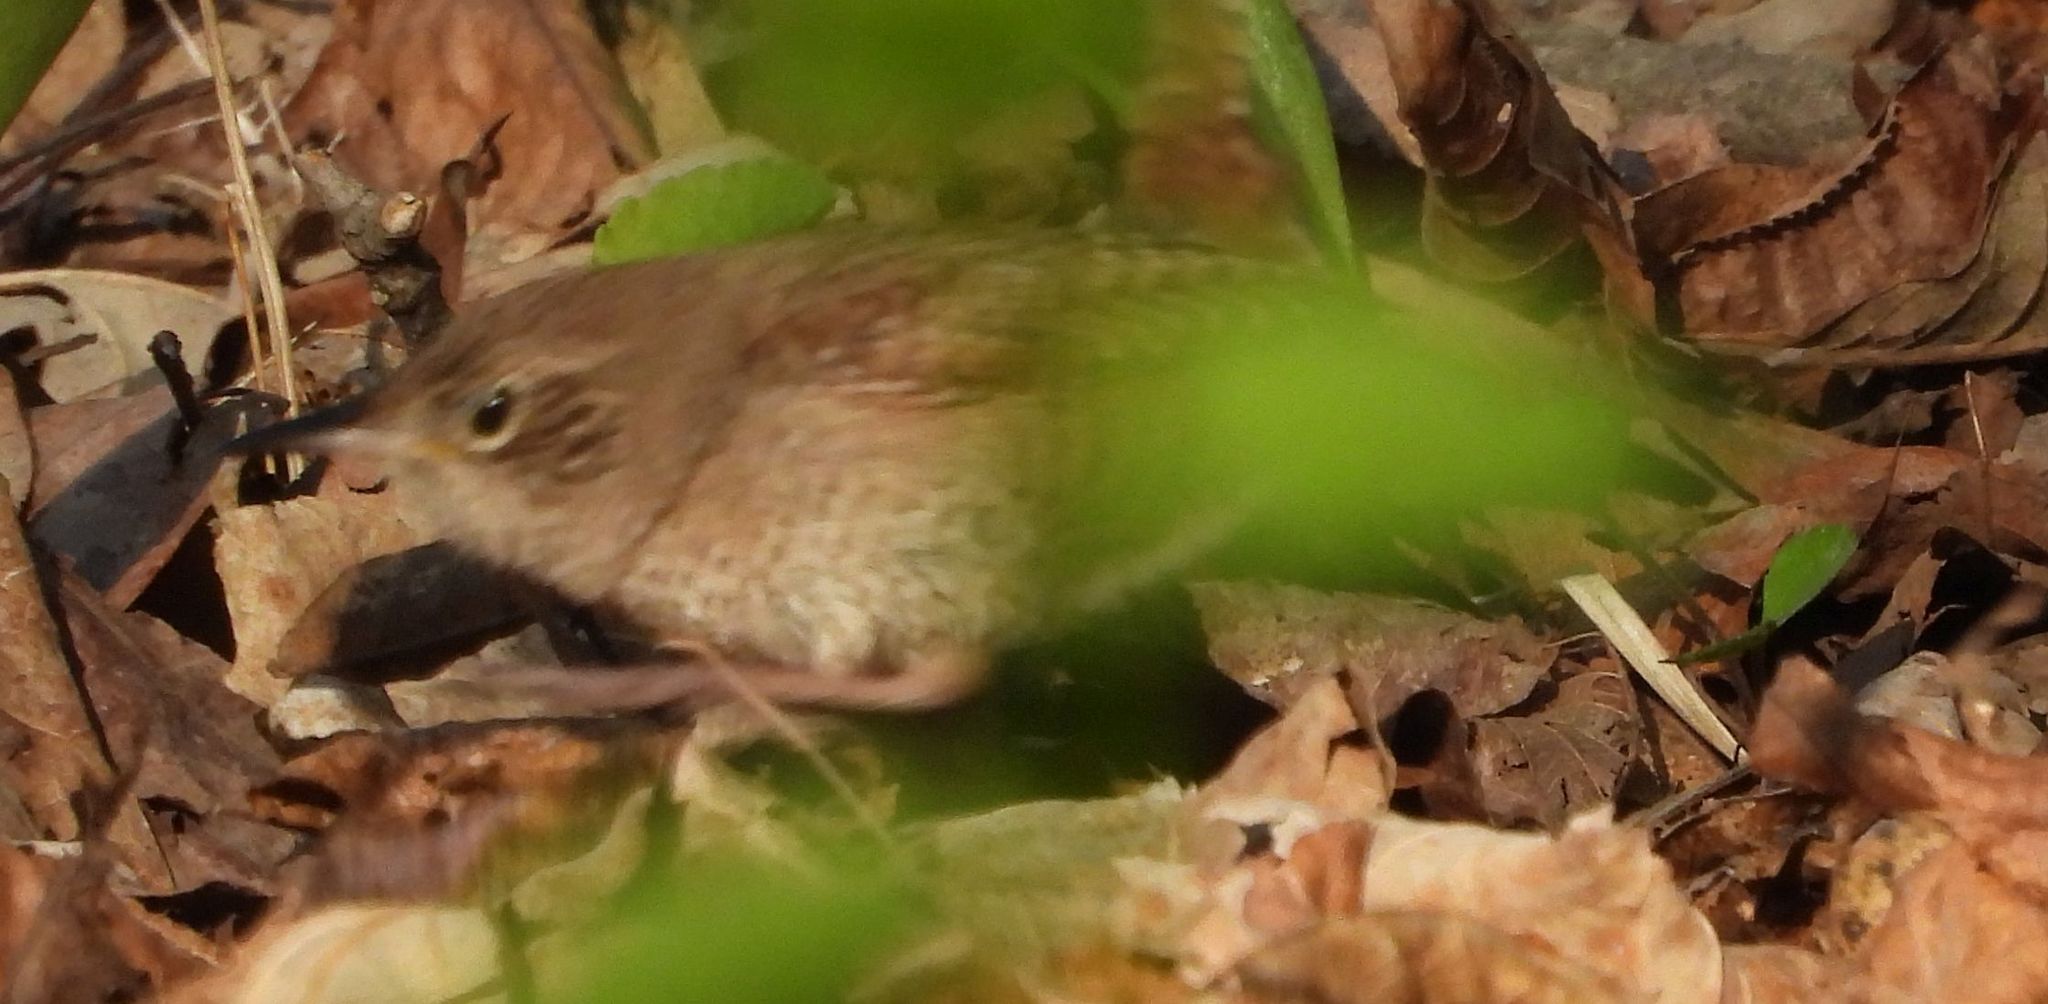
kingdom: Animalia
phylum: Chordata
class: Aves
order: Passeriformes
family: Troglodytidae
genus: Troglodytes
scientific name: Troglodytes aedon
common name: House wren
